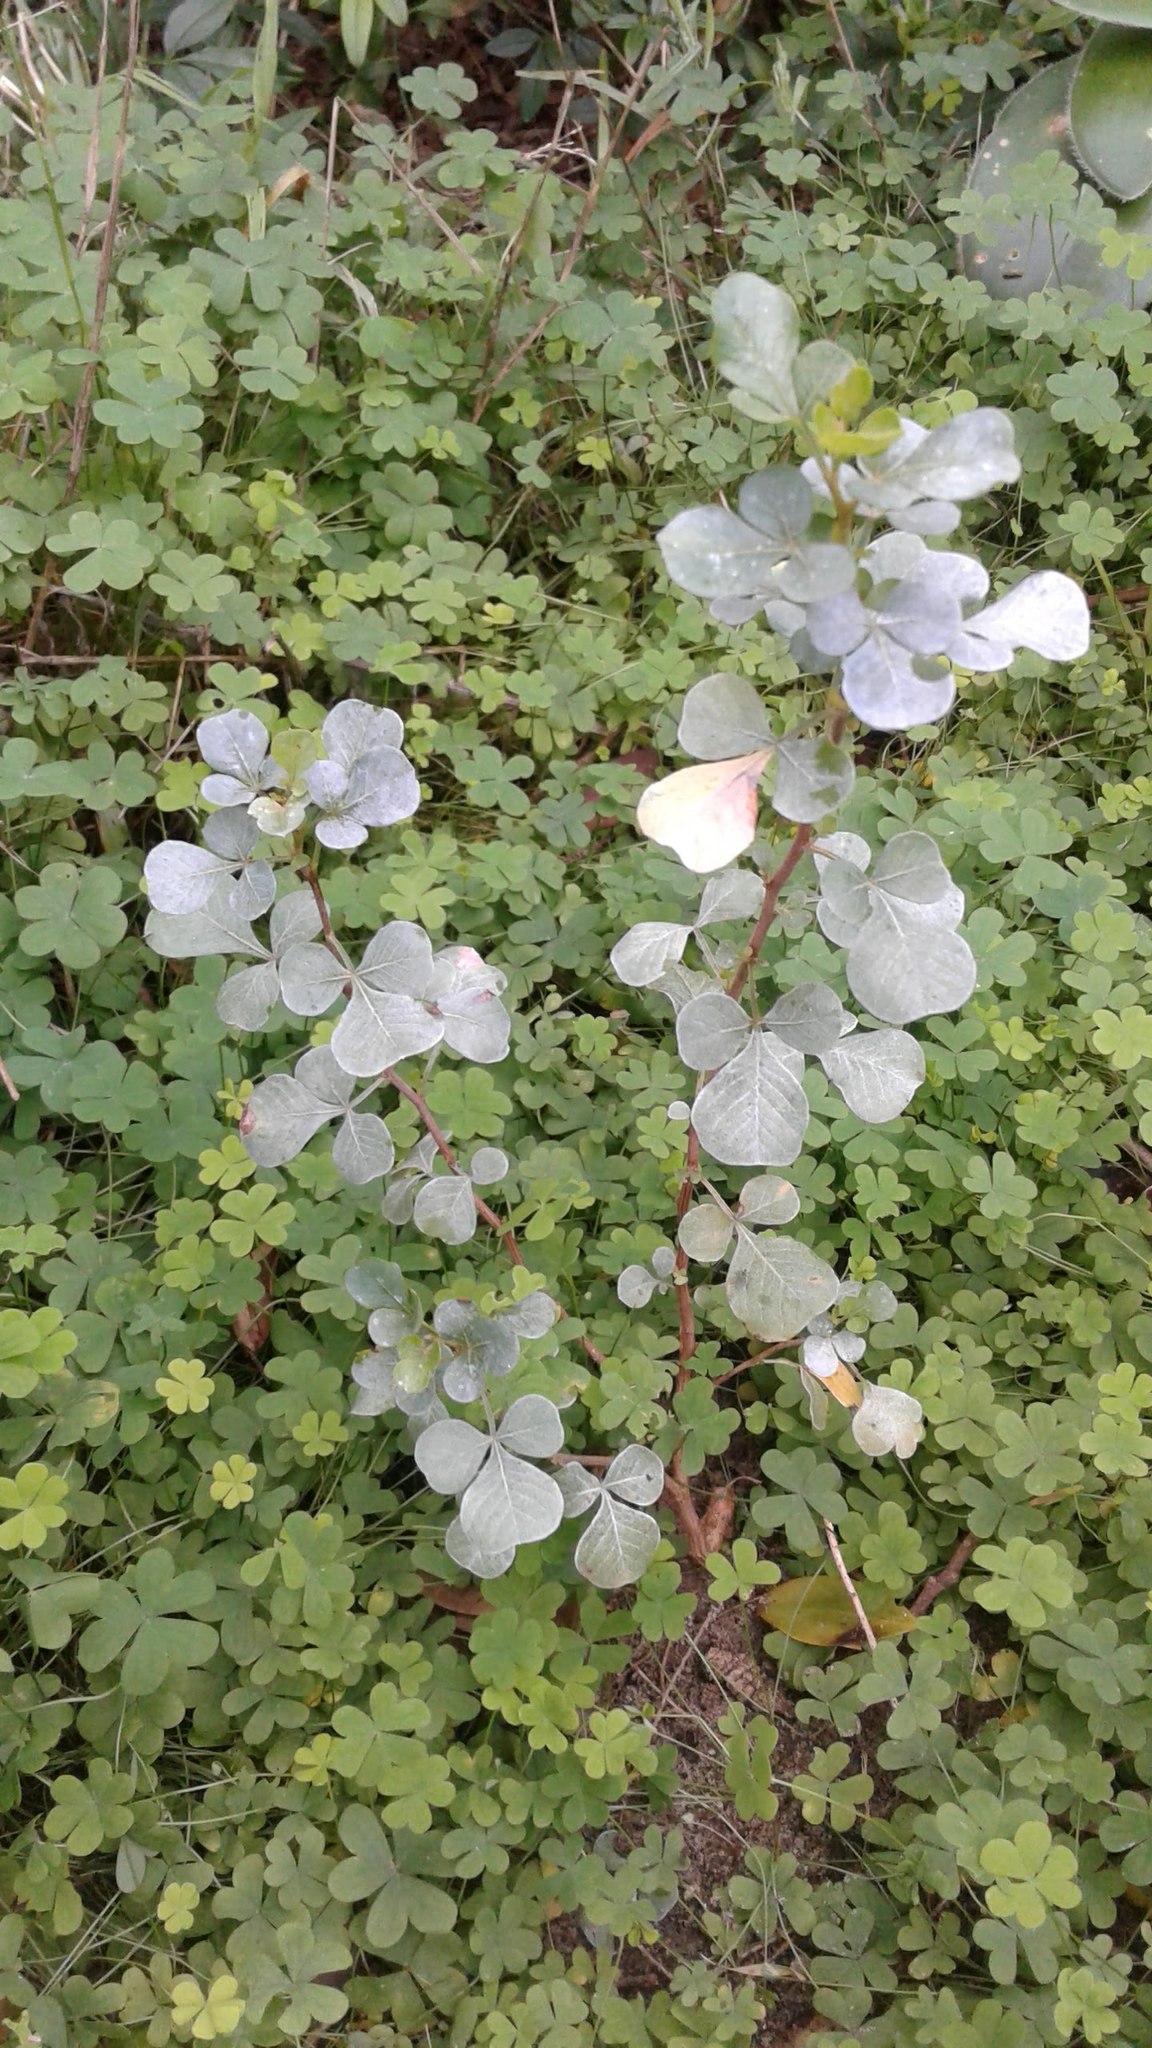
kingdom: Plantae
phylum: Tracheophyta
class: Magnoliopsida
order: Sapindales
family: Anacardiaceae
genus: Searsia
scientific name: Searsia glauca
